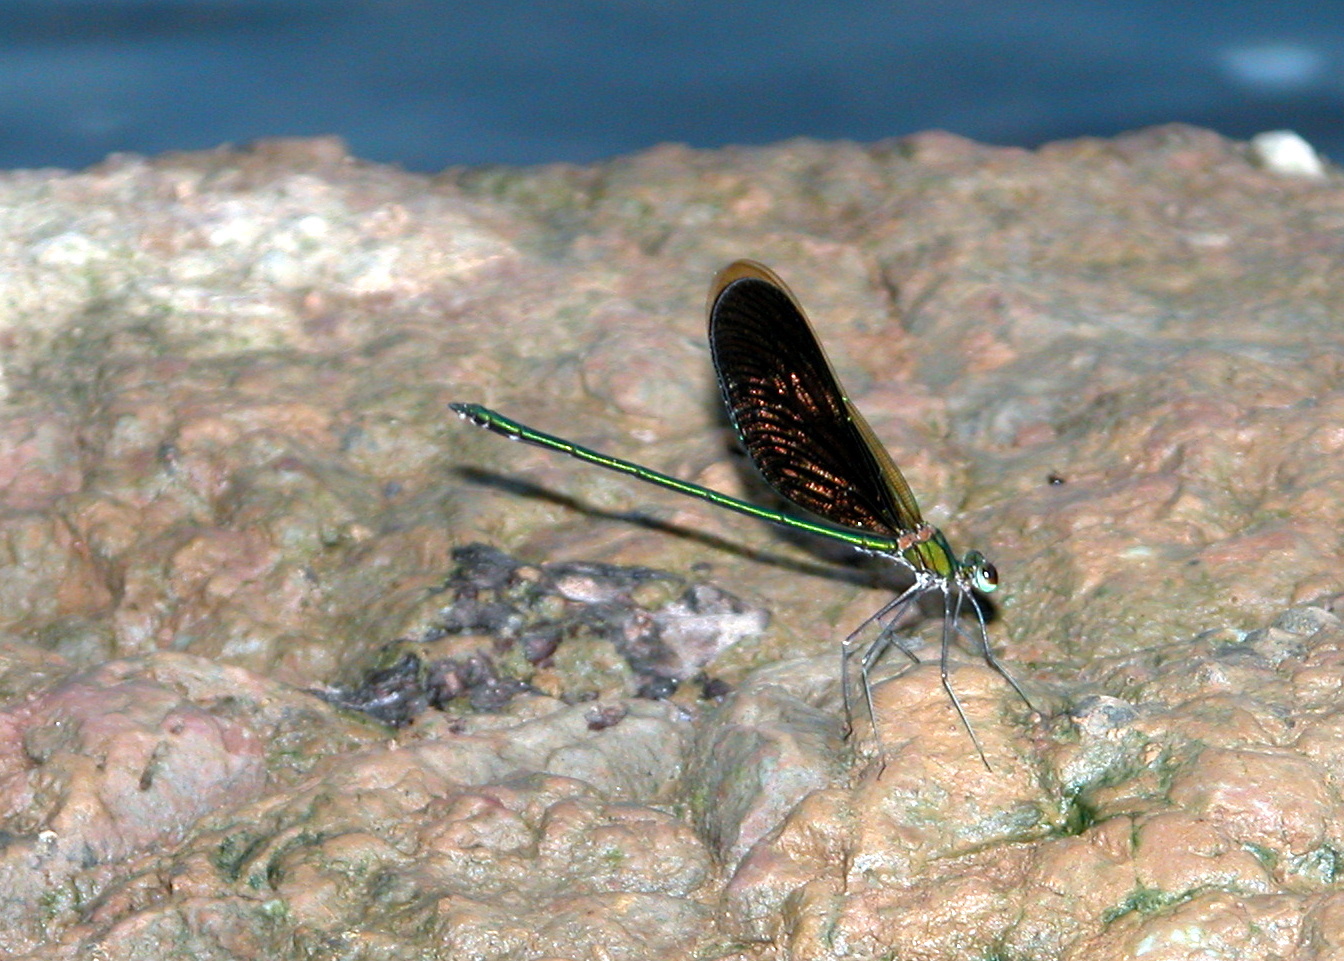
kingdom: Animalia
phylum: Arthropoda
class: Insecta
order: Odonata
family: Calopterygidae
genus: Neurobasis
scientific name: Neurobasis chinensis
